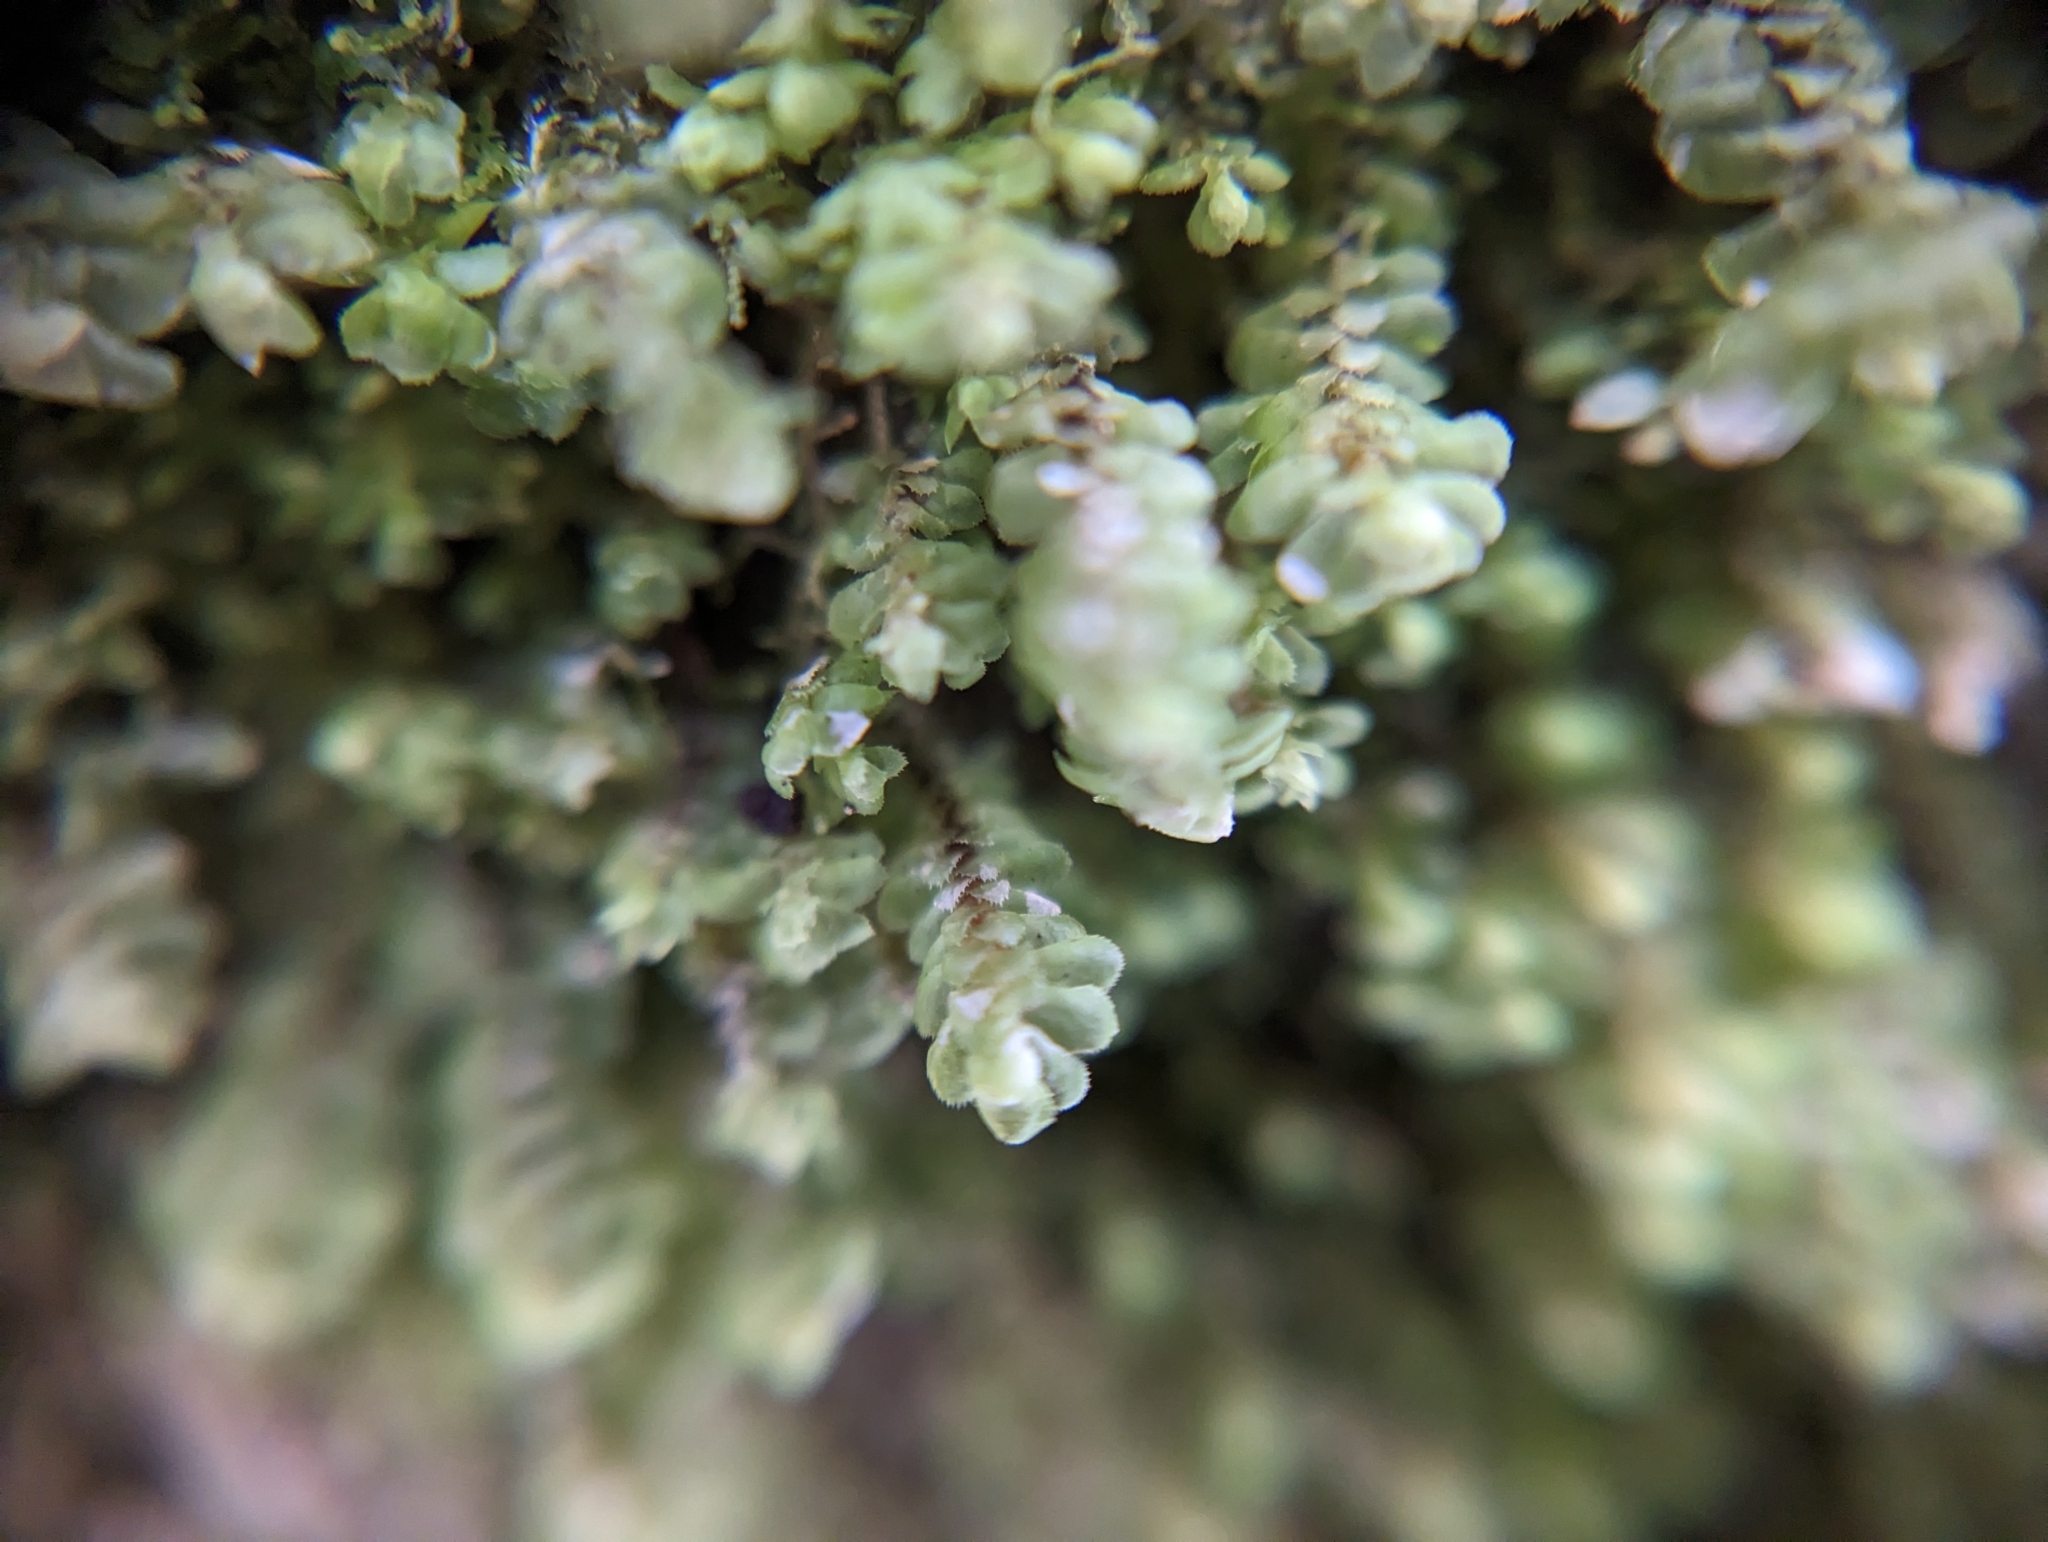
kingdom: Plantae
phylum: Marchantiophyta
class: Jungermanniopsida
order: Jungermanniales
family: Scapaniaceae
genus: Scapania
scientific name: Scapania bolanderi
